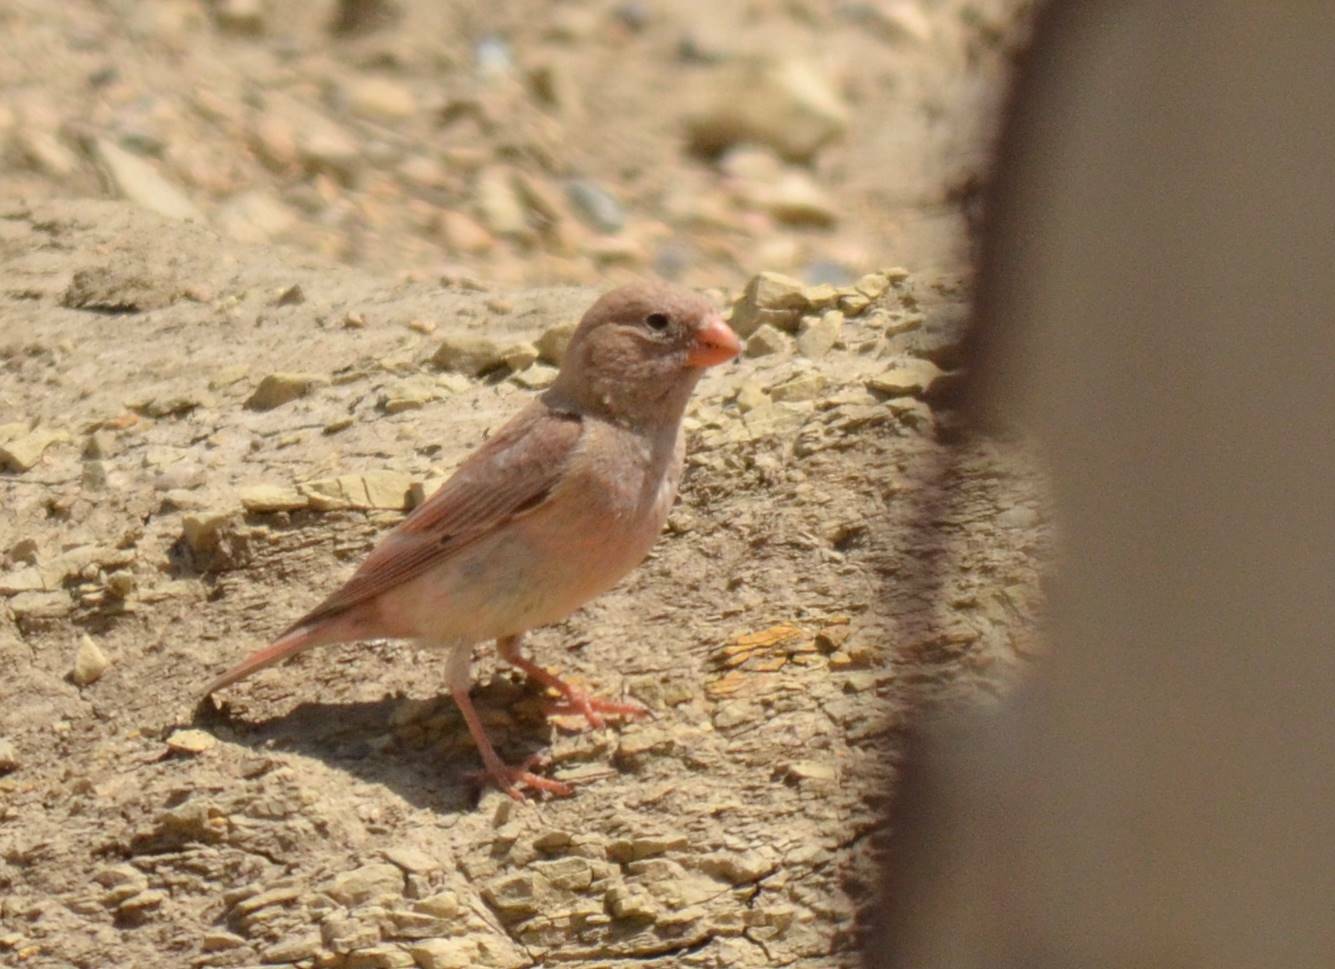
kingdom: Animalia
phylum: Chordata
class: Aves
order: Passeriformes
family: Fringillidae
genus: Bucanetes
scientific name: Bucanetes githagineus
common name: Trumpeter finch
